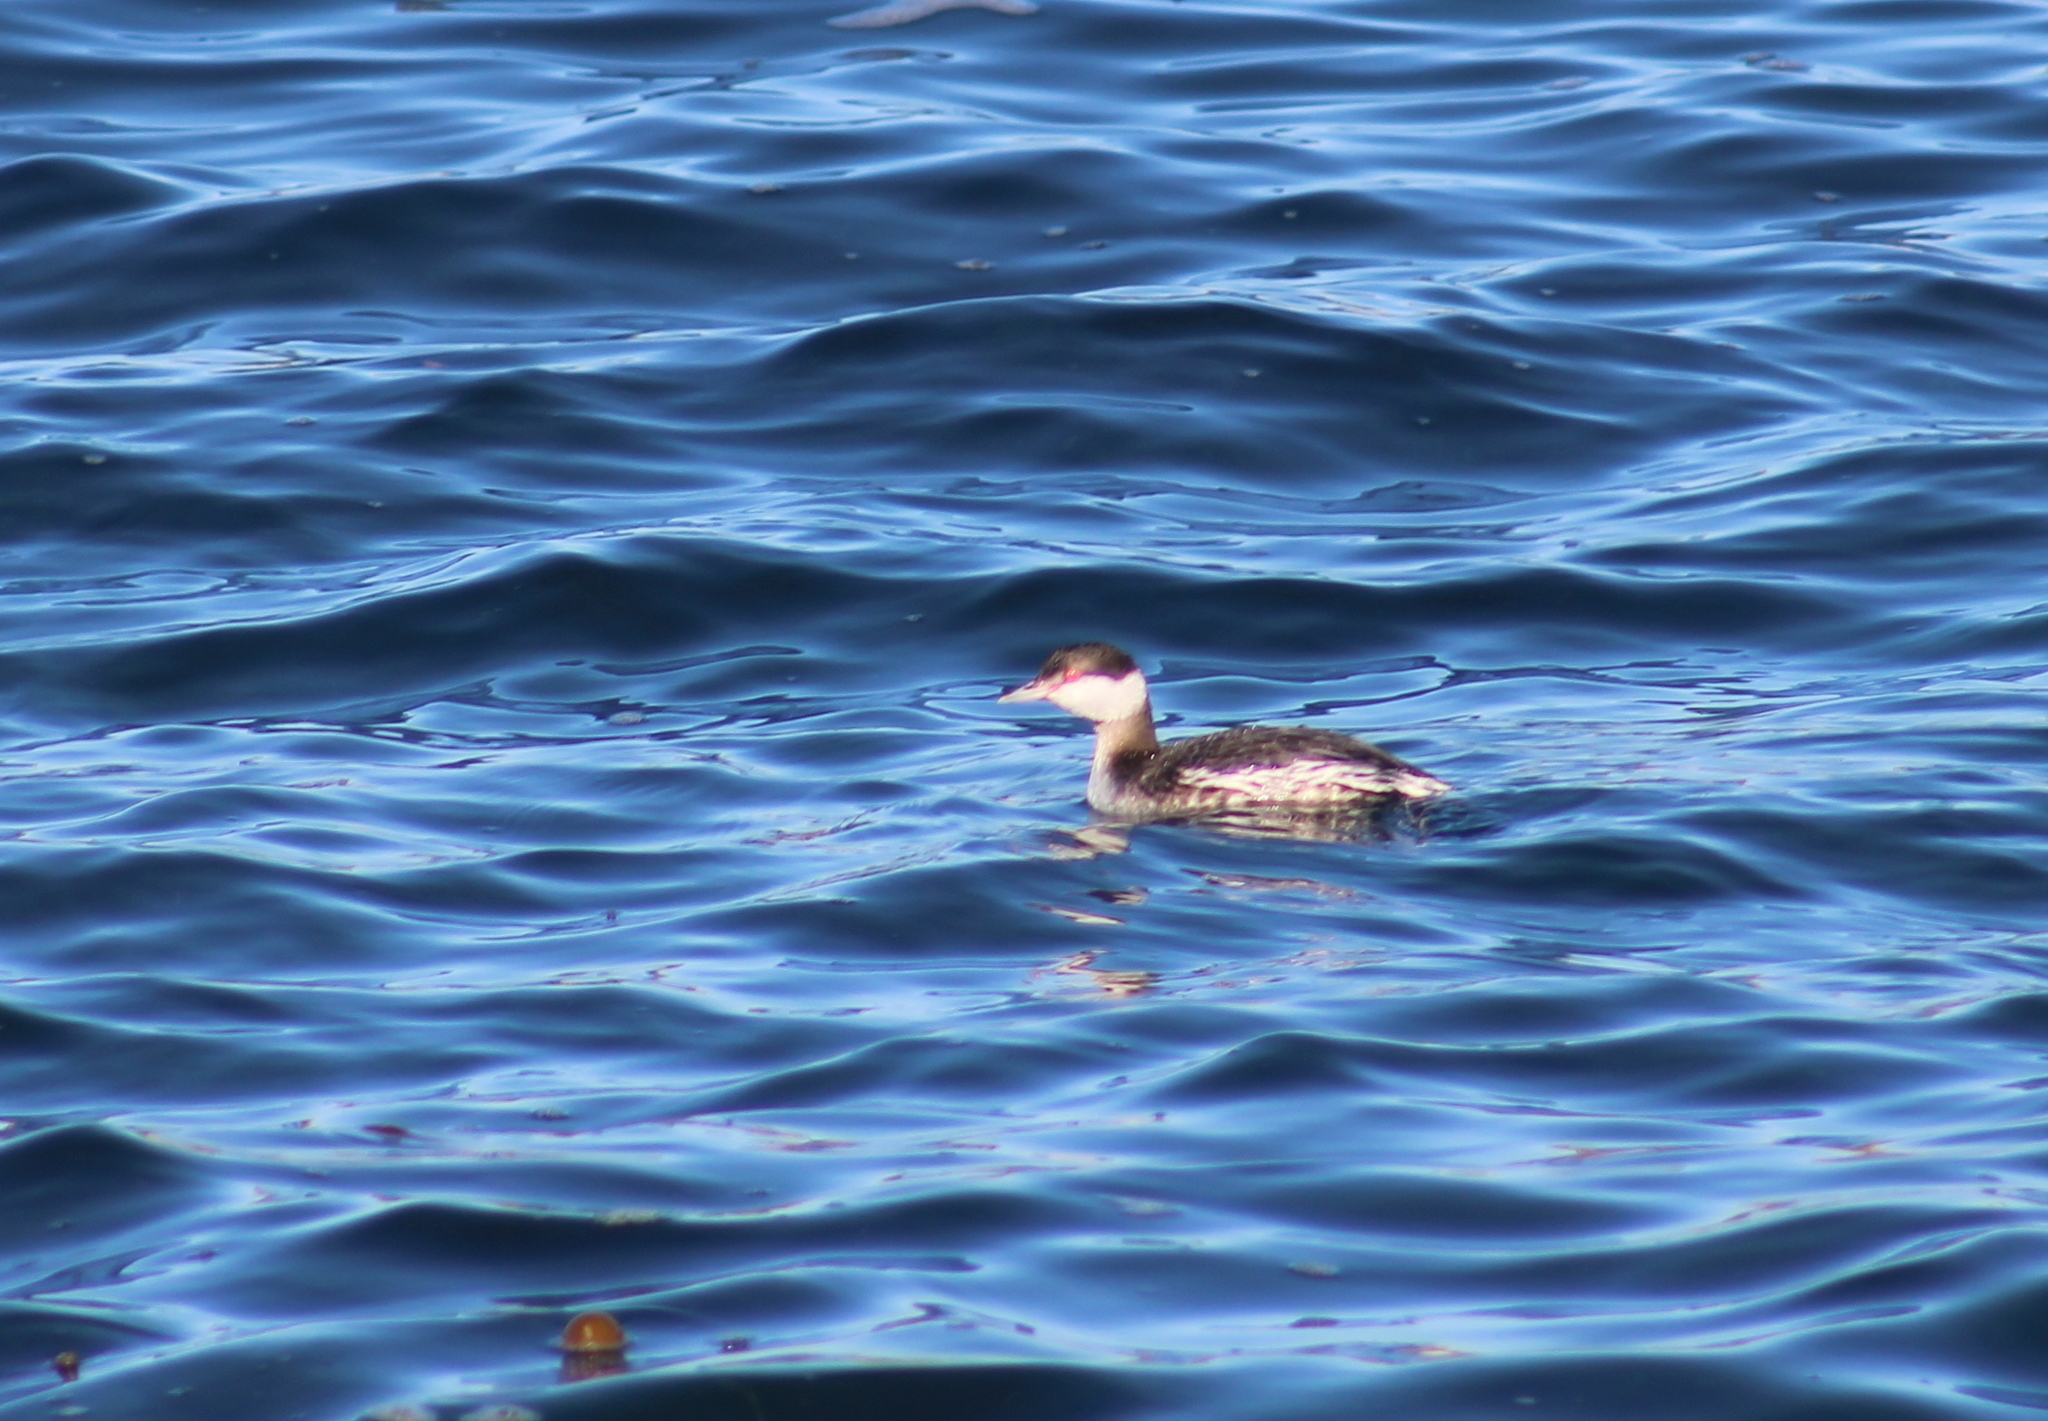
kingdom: Animalia
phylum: Chordata
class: Aves
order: Podicipediformes
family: Podicipedidae
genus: Podiceps
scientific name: Podiceps auritus
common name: Horned grebe
